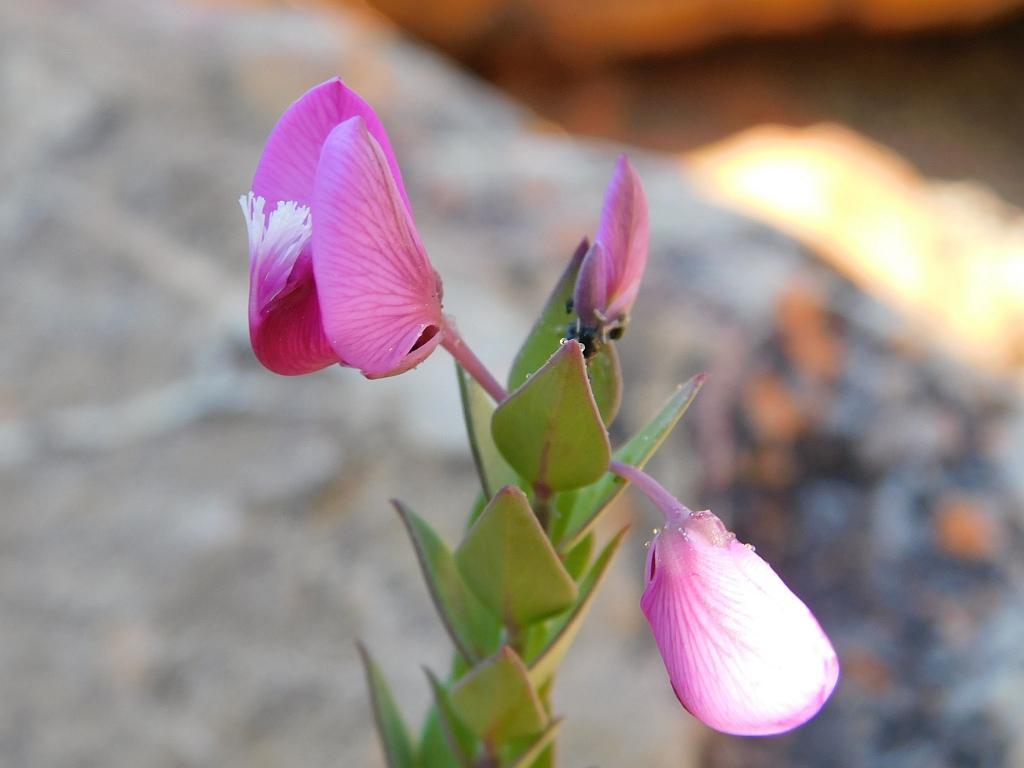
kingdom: Plantae
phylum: Tracheophyta
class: Magnoliopsida
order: Fabales
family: Polygalaceae
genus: Polygala
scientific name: Polygala fruticosa
